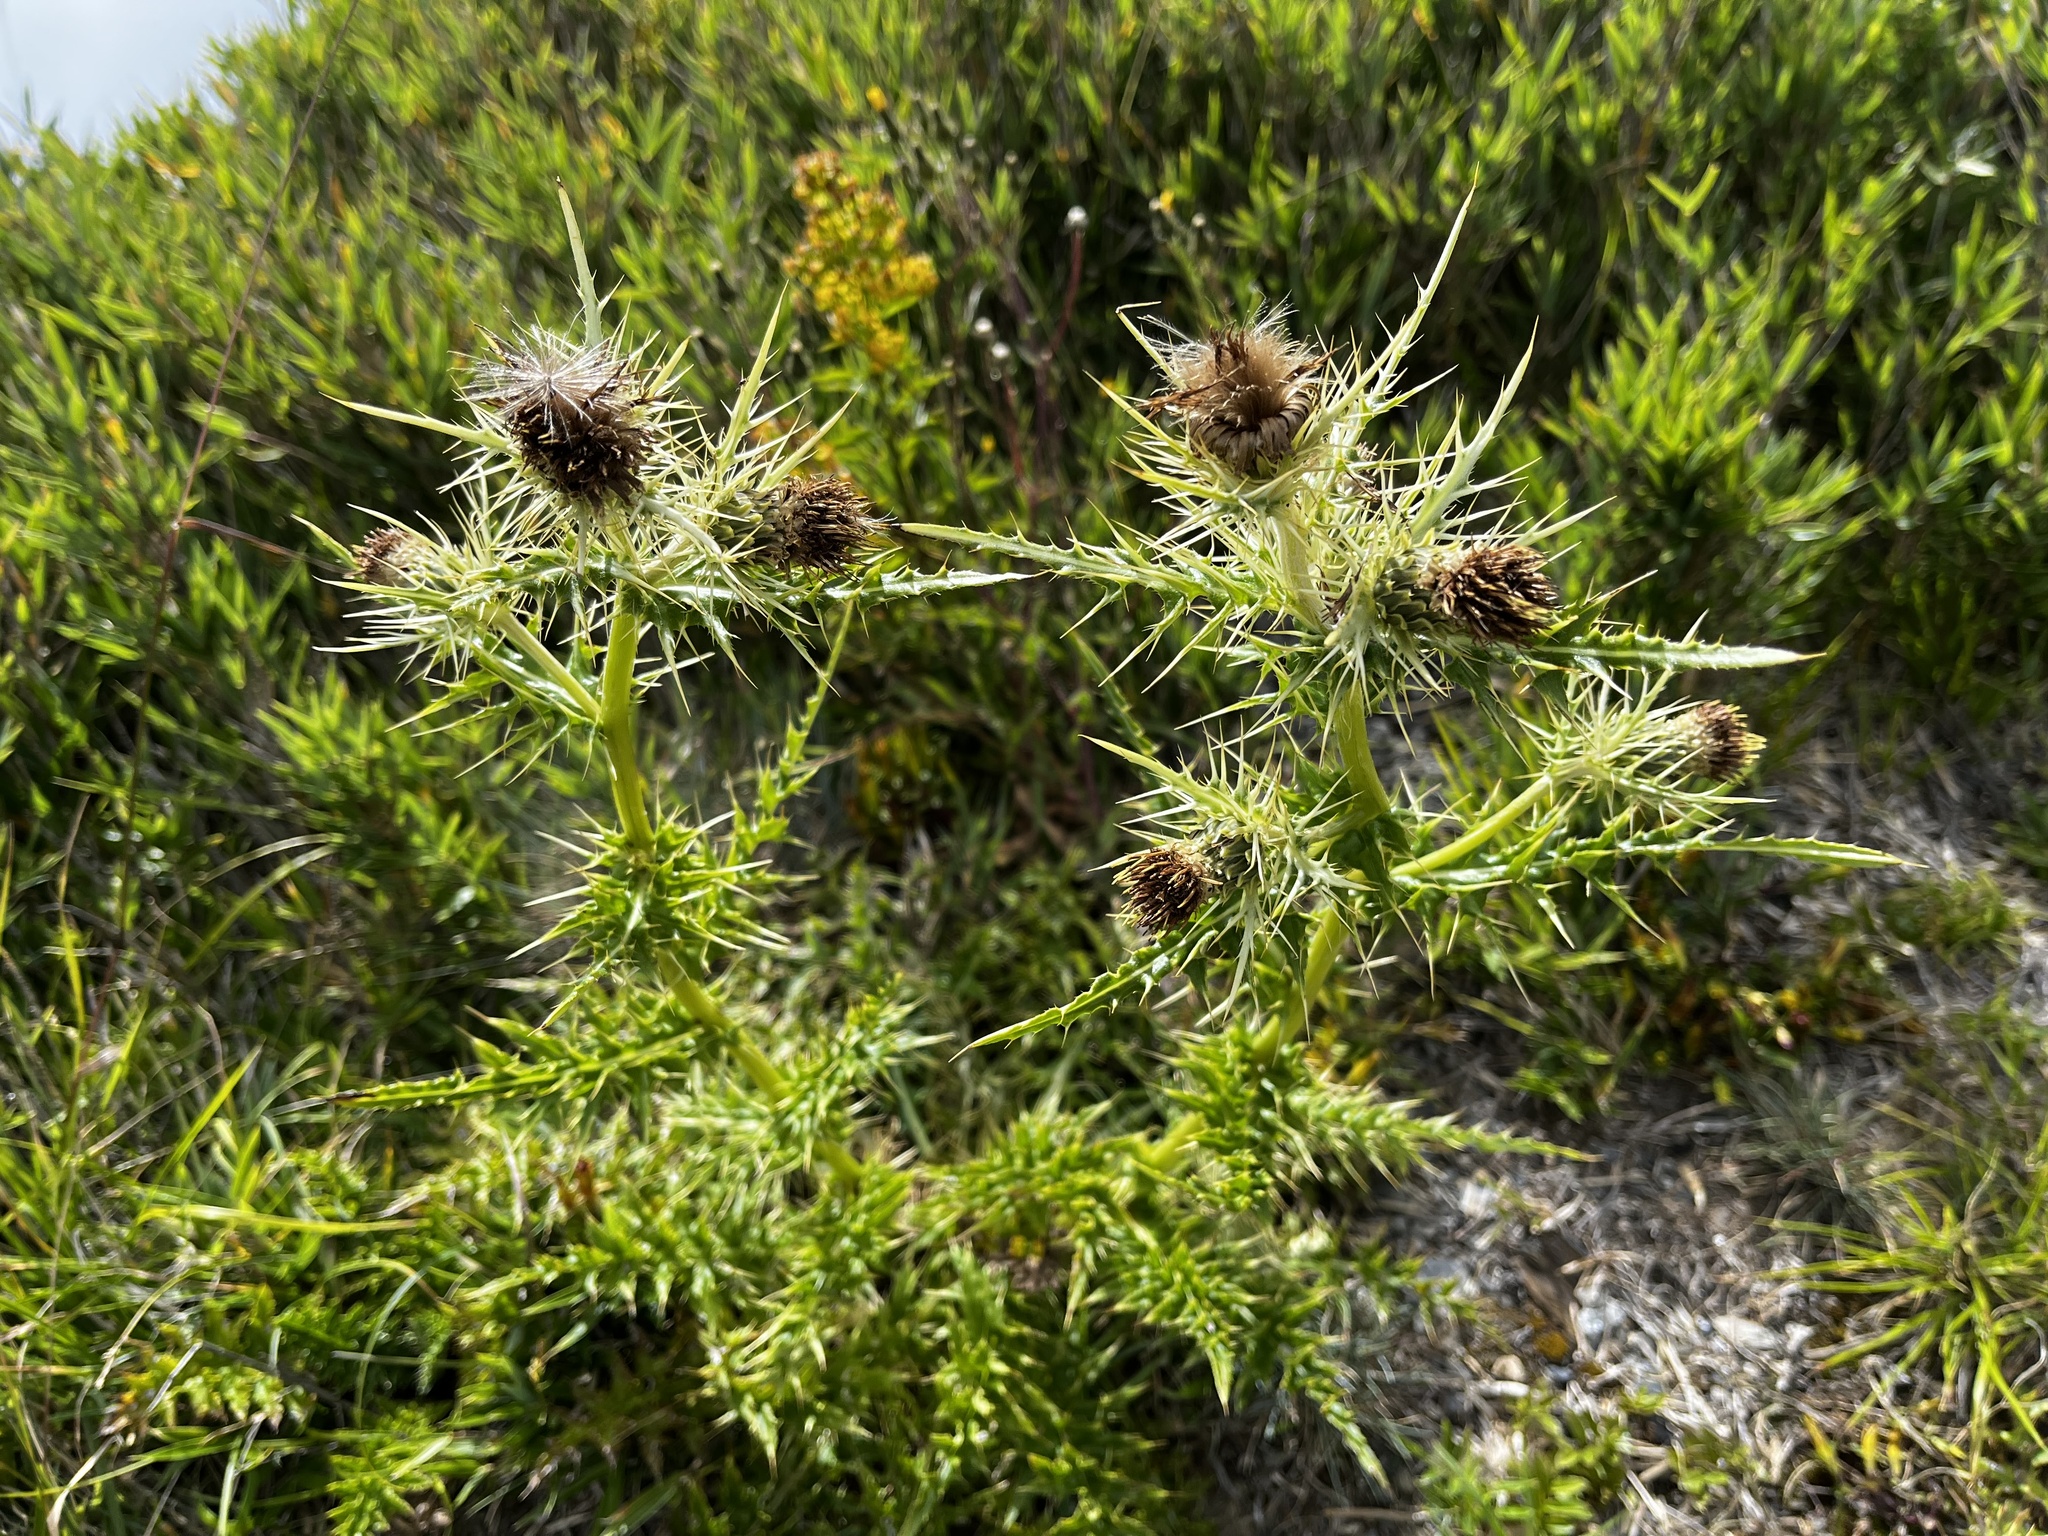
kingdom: Plantae
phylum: Tracheophyta
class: Magnoliopsida
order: Asterales
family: Asteraceae
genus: Cirsium
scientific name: Cirsium arisanense
